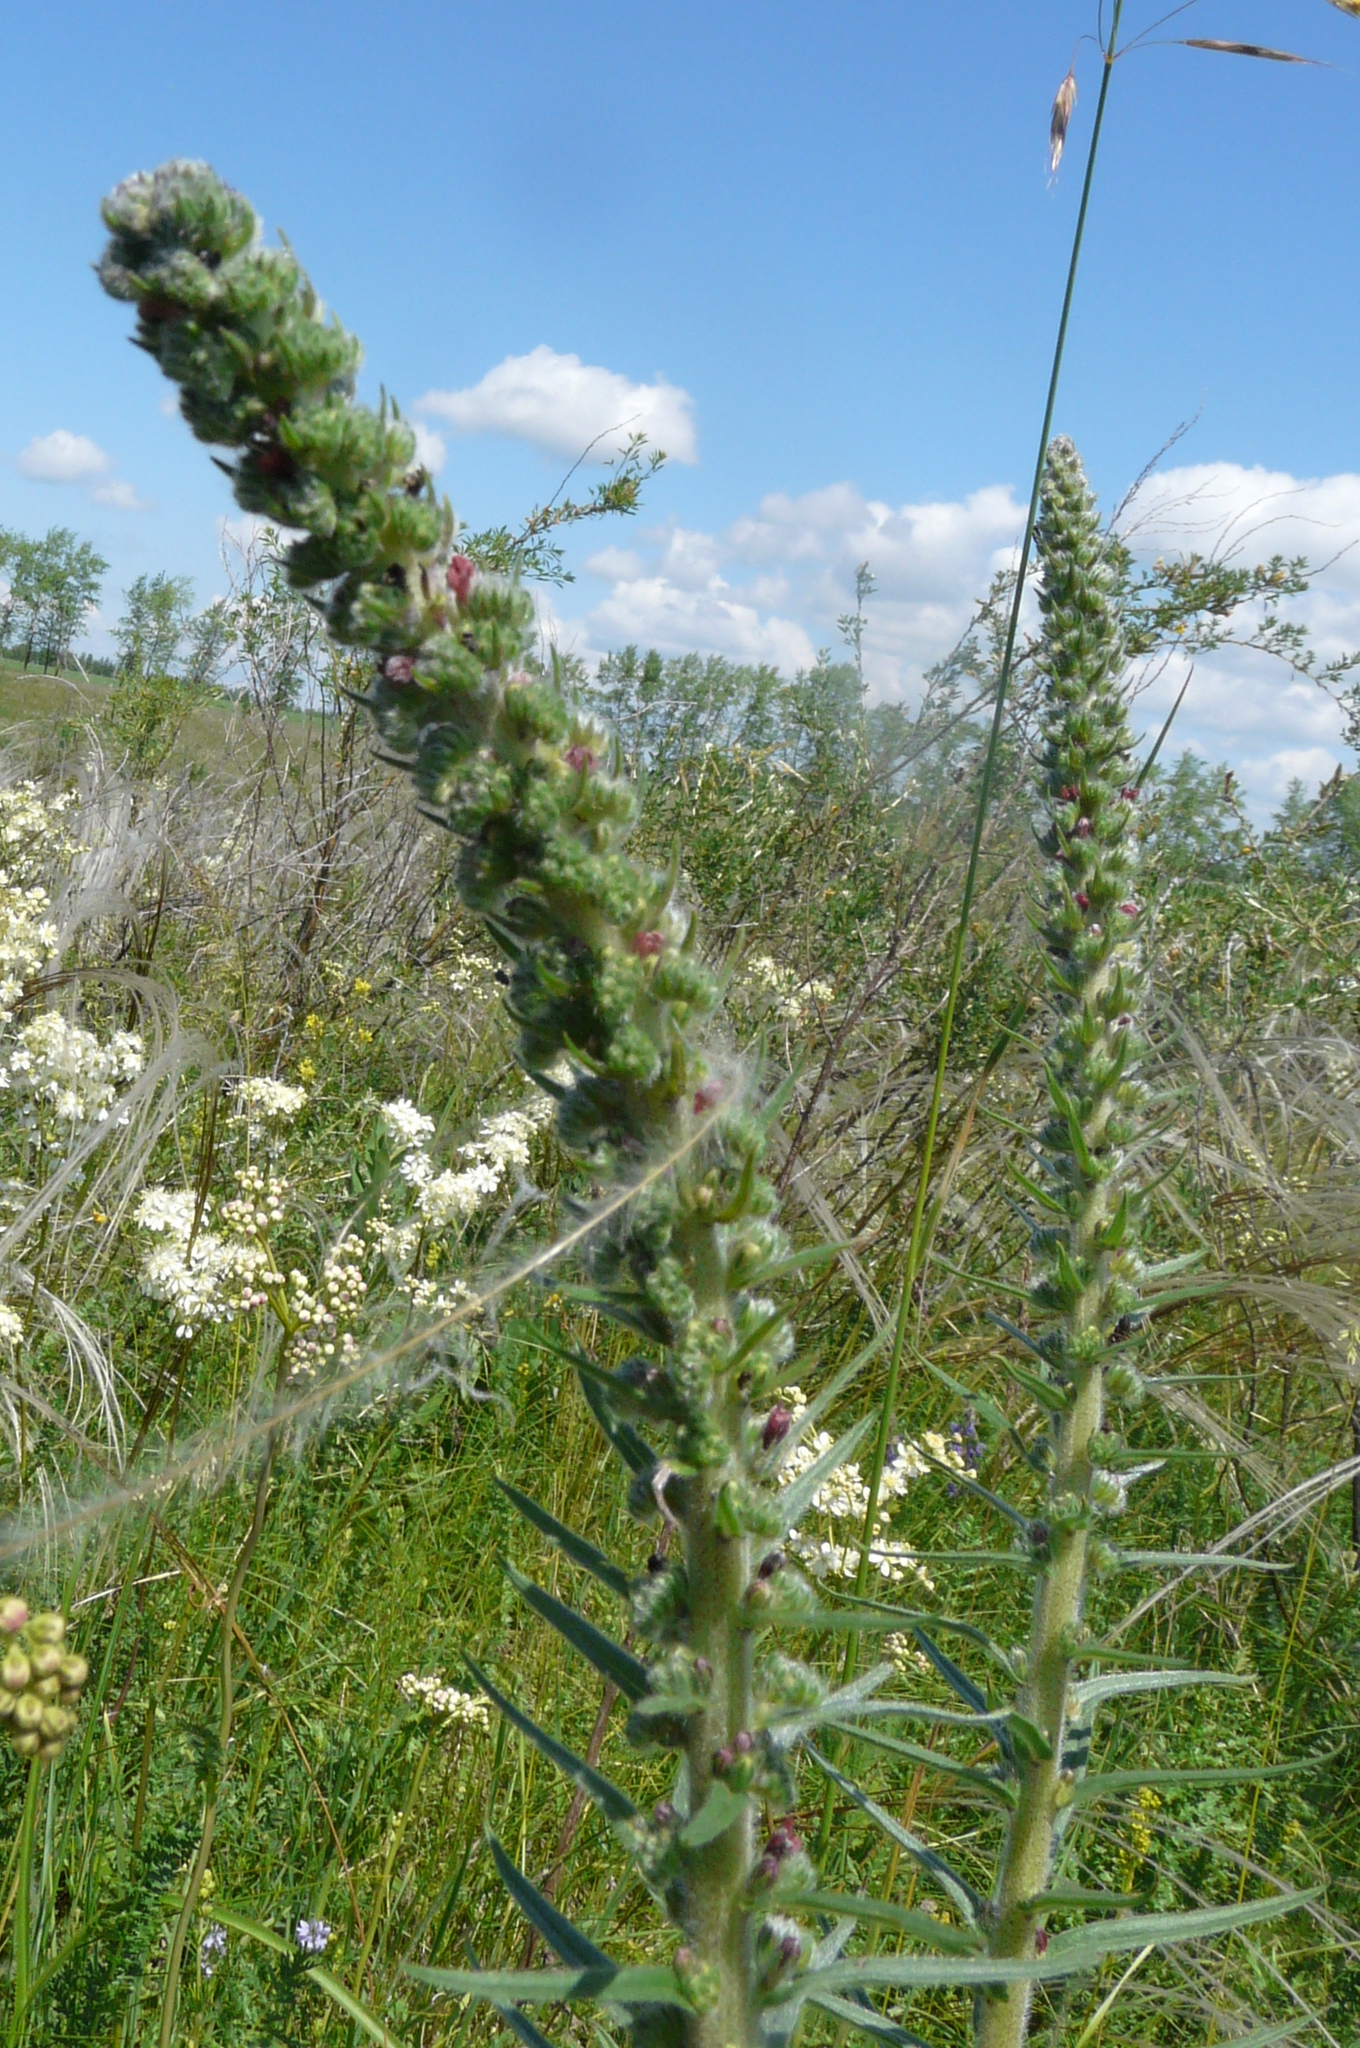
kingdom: Plantae
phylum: Tracheophyta
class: Magnoliopsida
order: Boraginales
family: Boraginaceae
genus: Pontechium
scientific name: Pontechium maculatum
